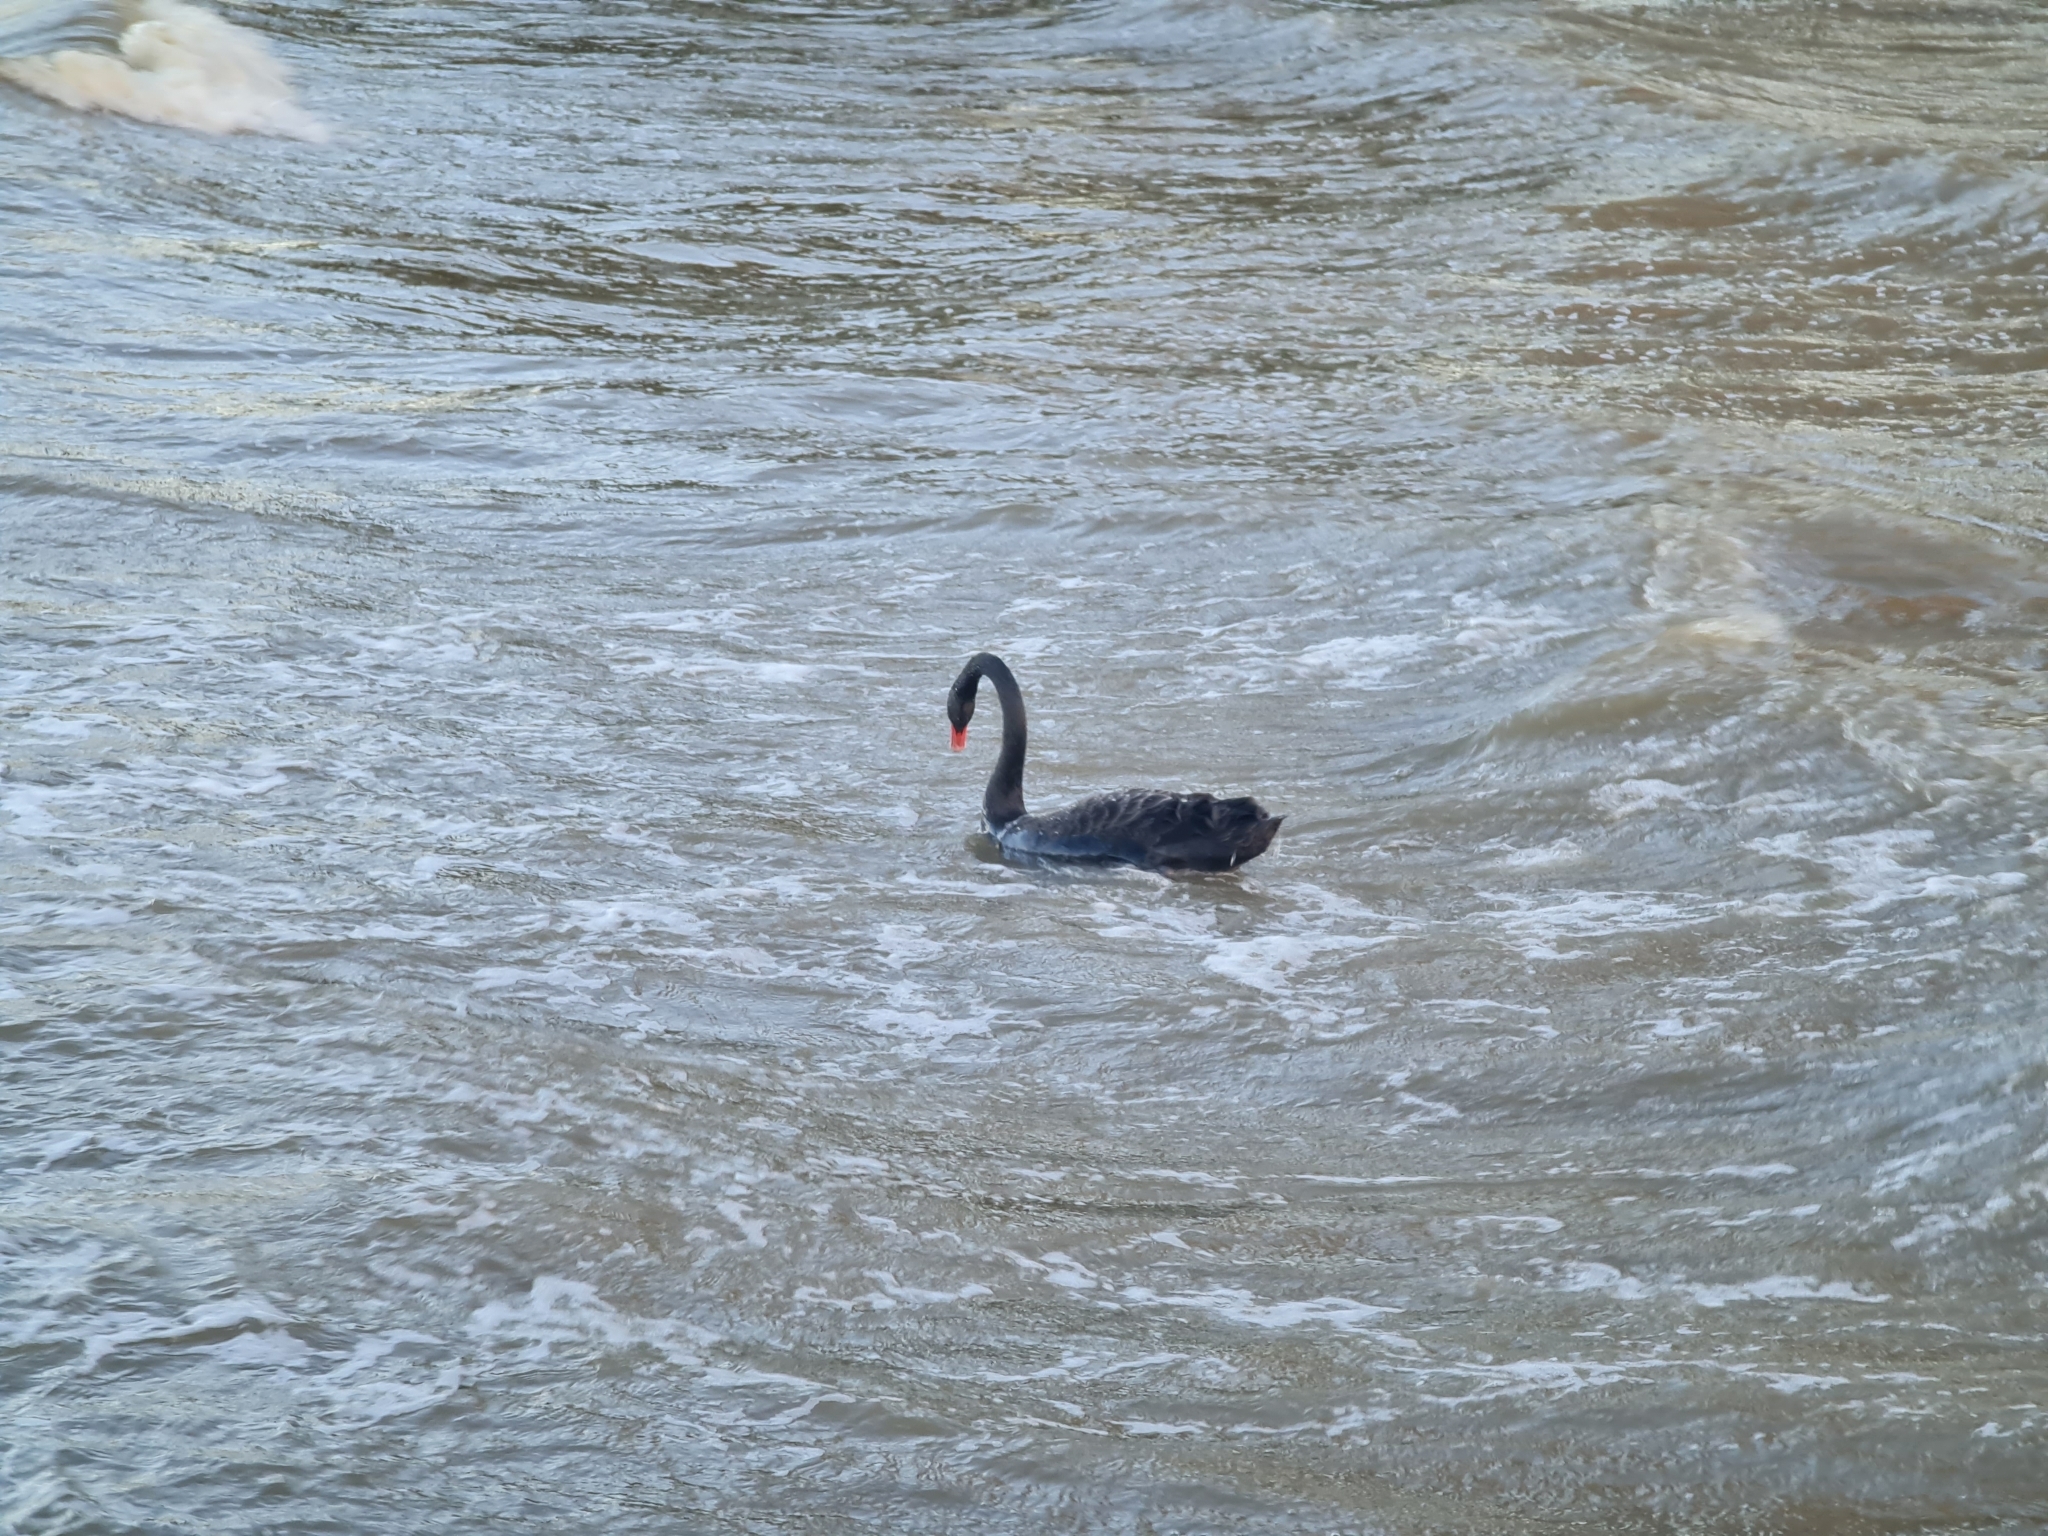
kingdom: Animalia
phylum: Chordata
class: Aves
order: Anseriformes
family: Anatidae
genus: Cygnus
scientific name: Cygnus atratus
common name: Black swan
